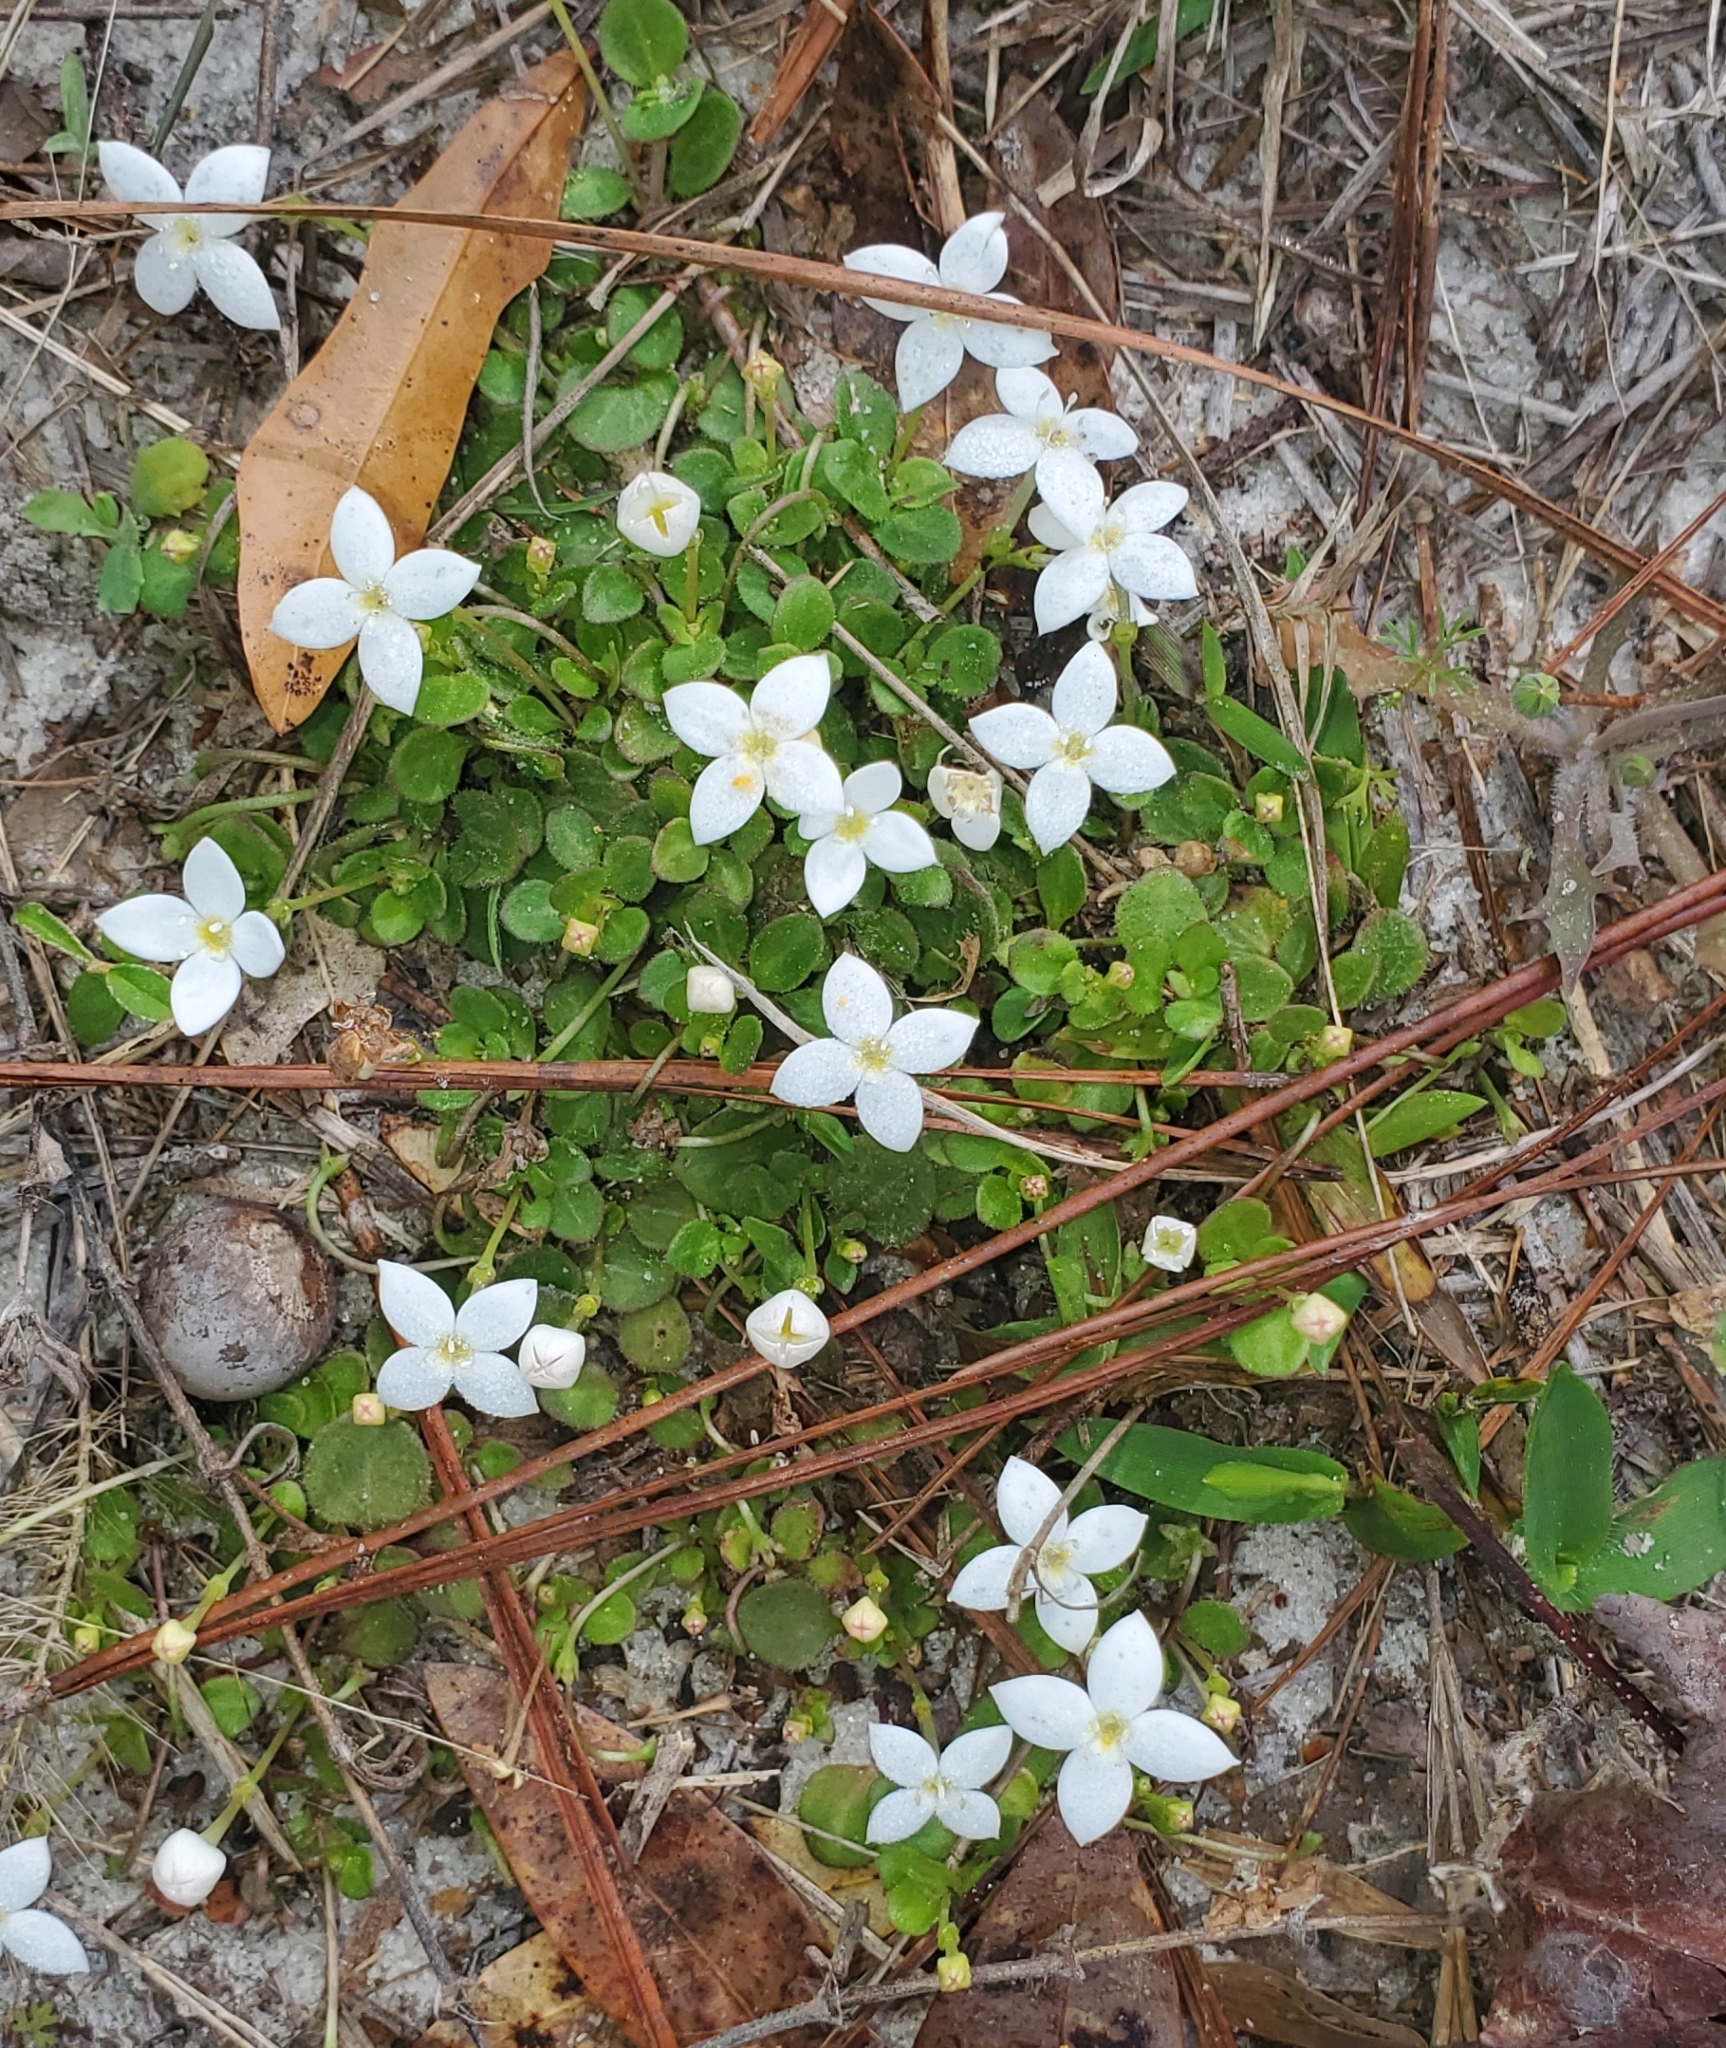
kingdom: Plantae
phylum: Tracheophyta
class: Magnoliopsida
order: Gentianales
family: Rubiaceae
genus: Houstonia
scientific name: Houstonia procumbens
